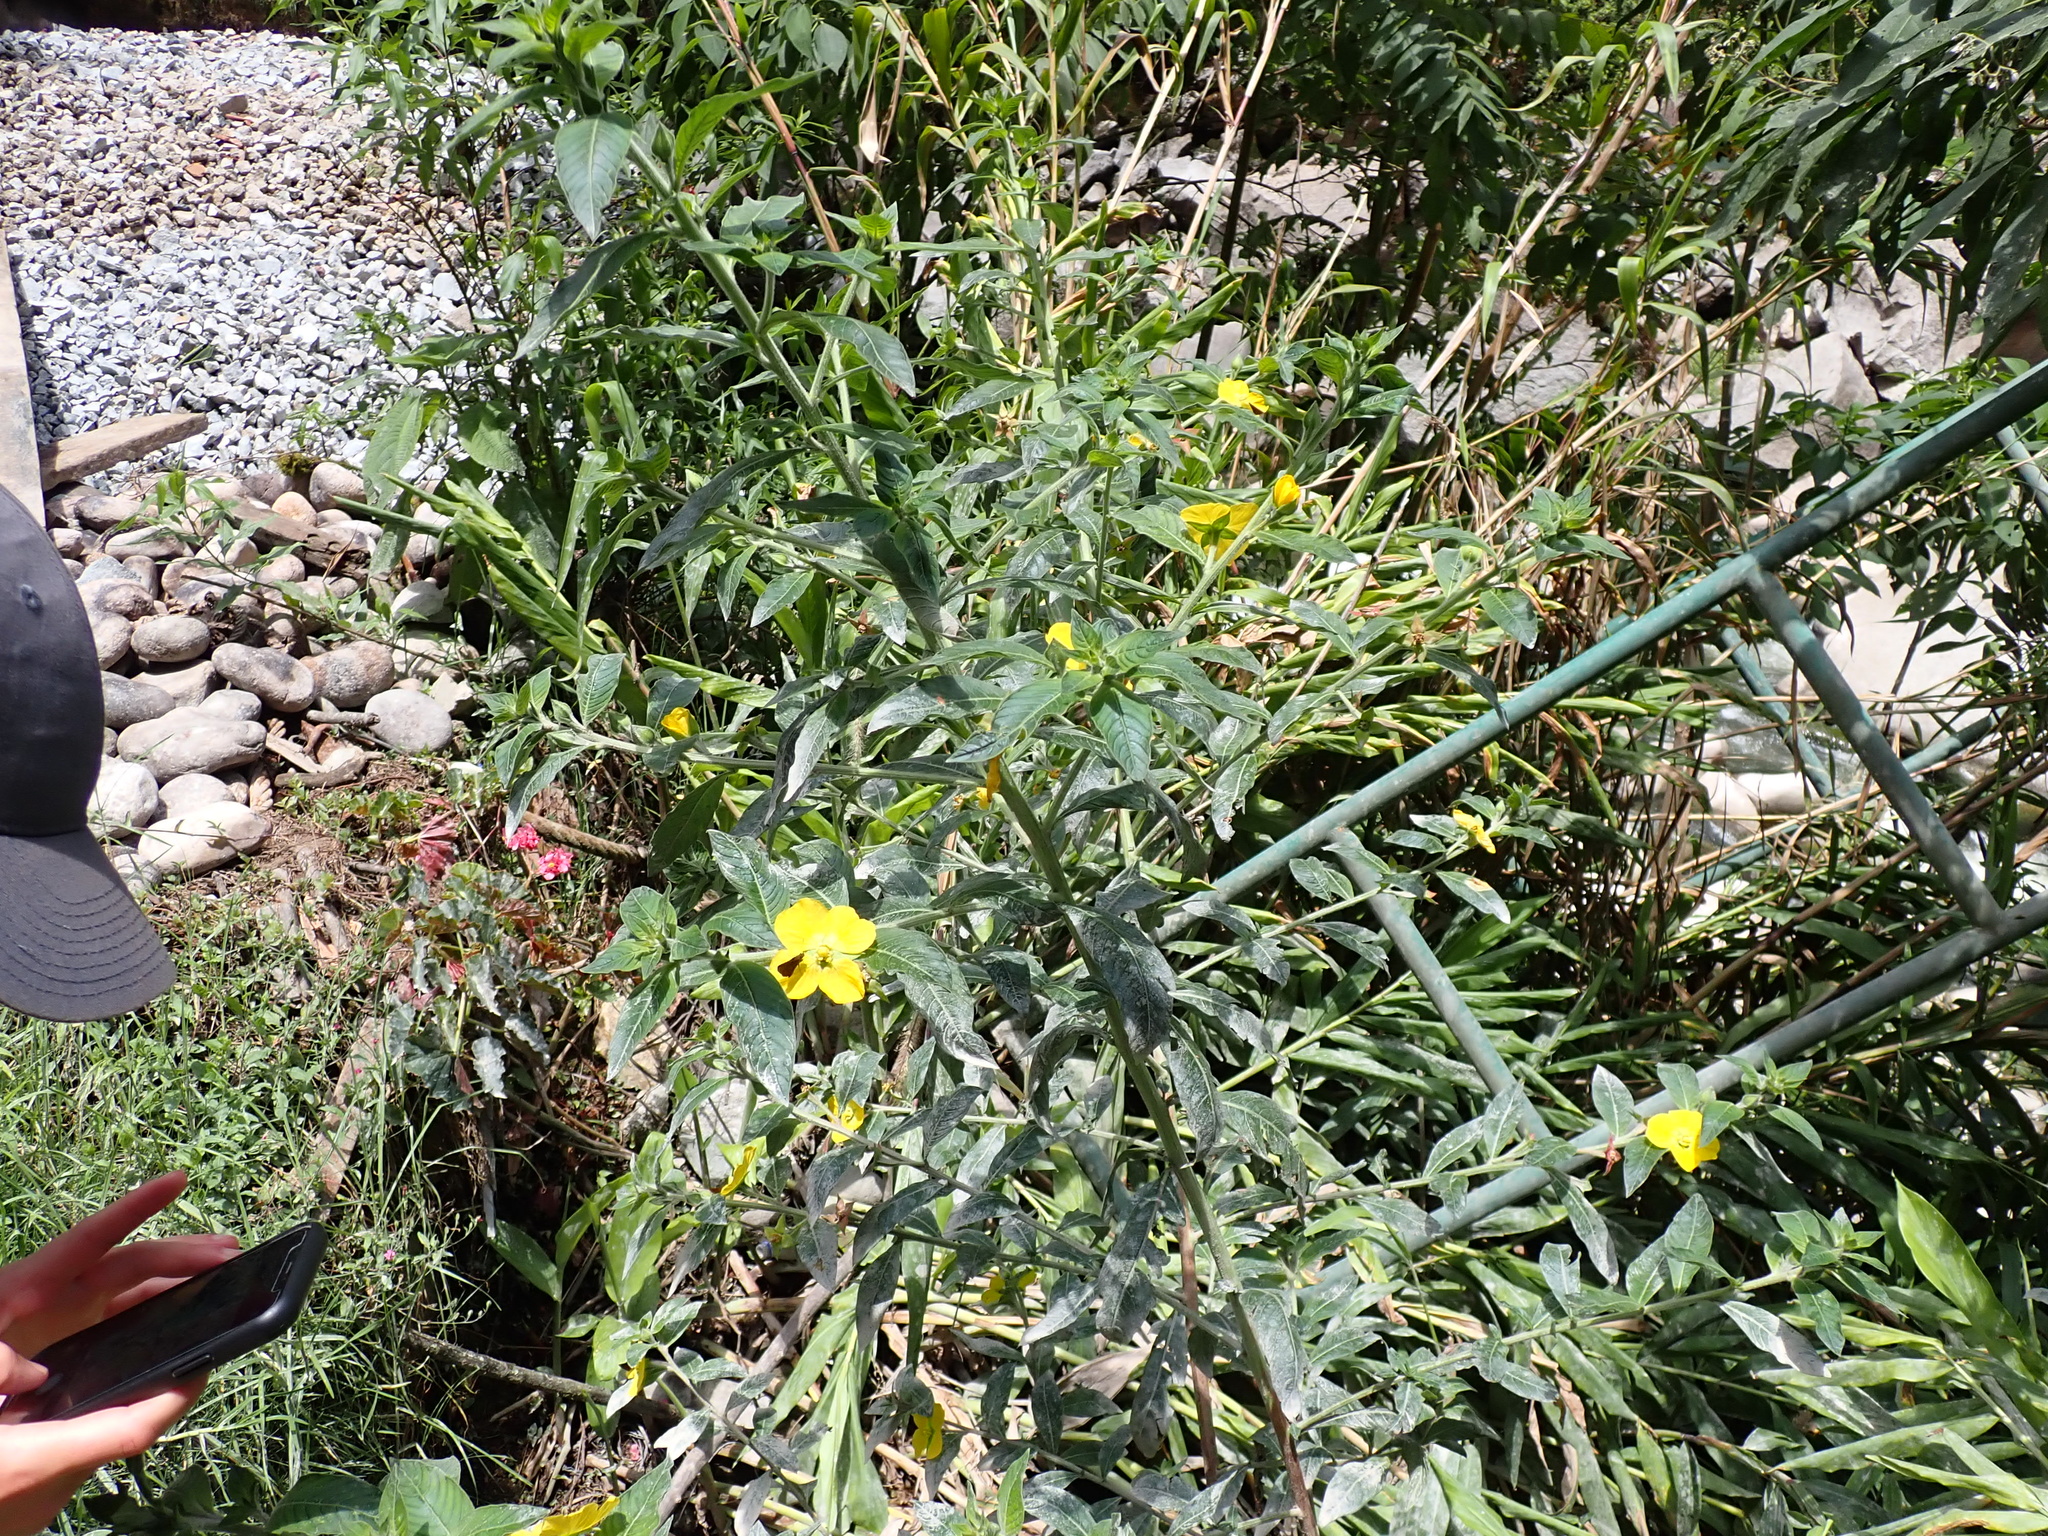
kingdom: Plantae
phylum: Tracheophyta
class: Magnoliopsida
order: Myrtales
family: Onagraceae
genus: Ludwigia
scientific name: Ludwigia peruviana
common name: Peruvian primrose-willow
